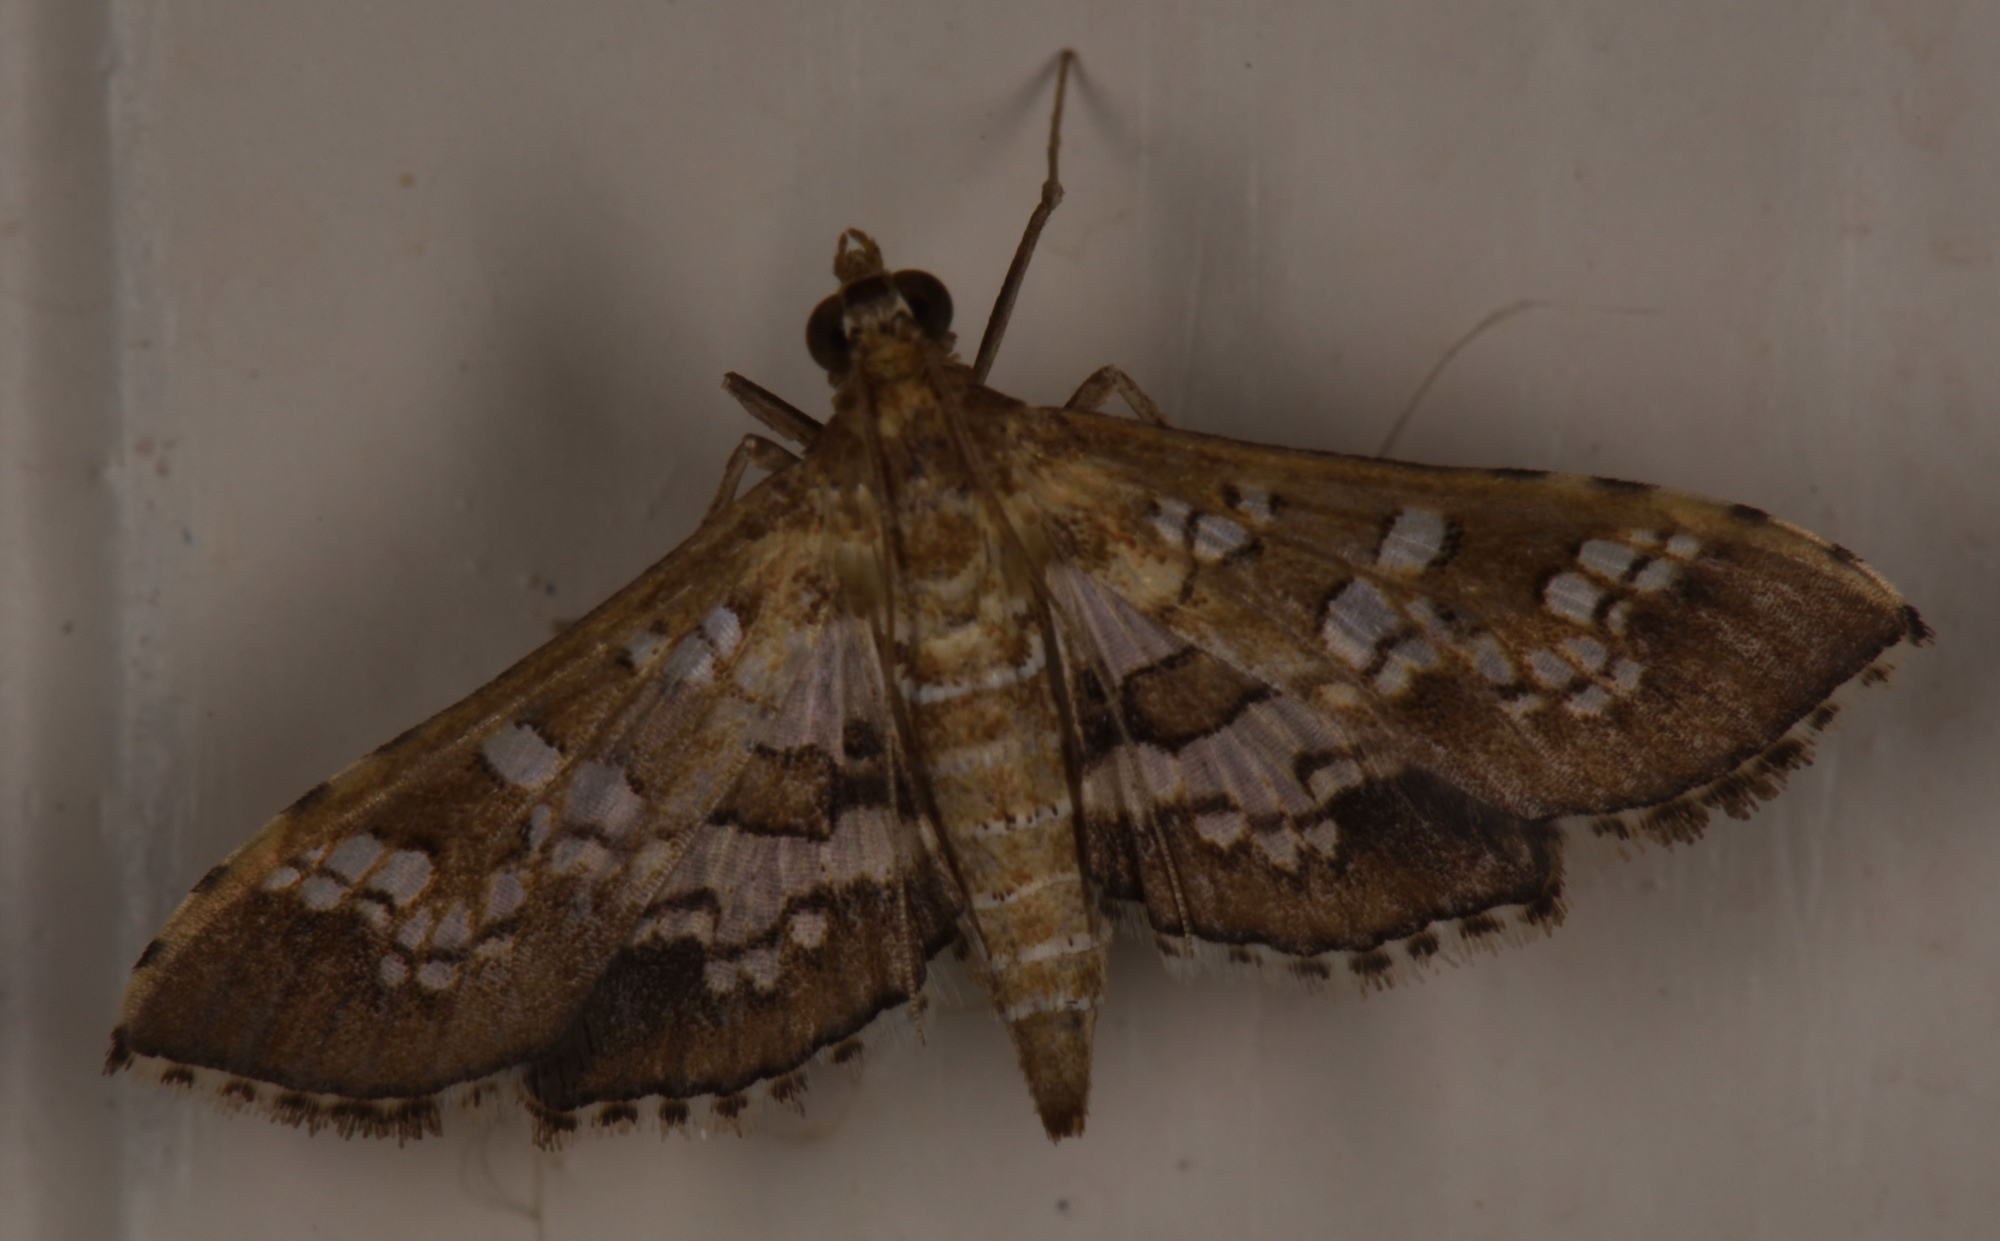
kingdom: Animalia
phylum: Arthropoda
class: Insecta
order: Lepidoptera
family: Crambidae
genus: Sameodes
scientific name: Sameodes cancellalis
